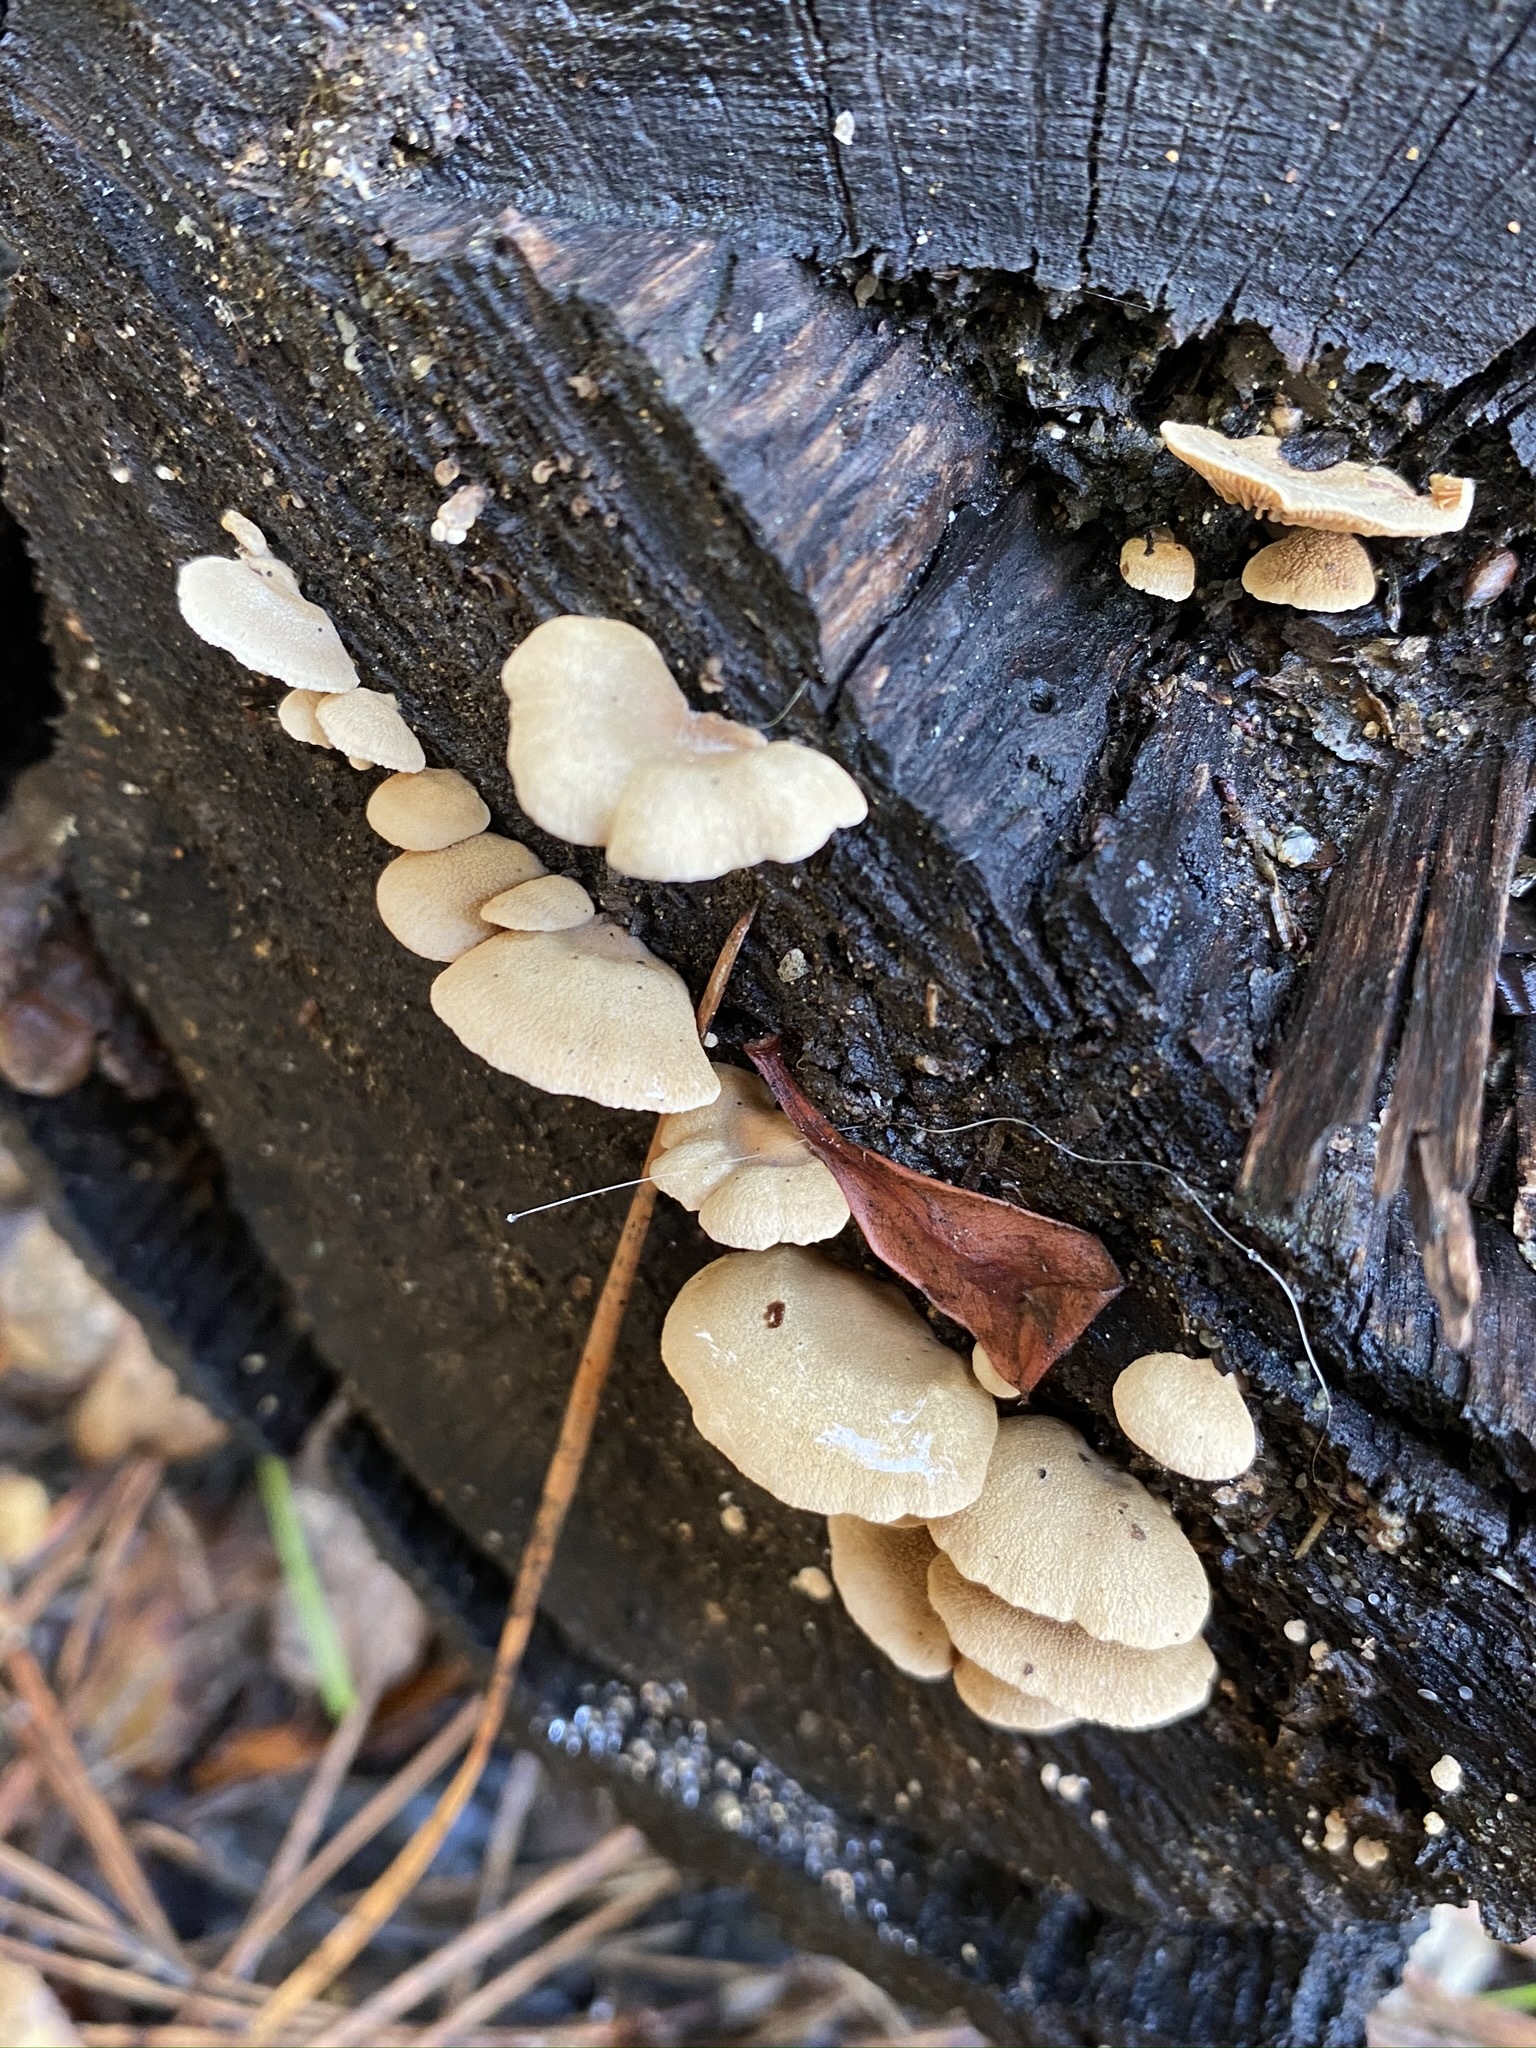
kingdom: Fungi
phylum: Basidiomycota
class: Agaricomycetes
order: Agaricales
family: Mycenaceae
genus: Panellus
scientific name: Panellus stipticus
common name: Bitter oysterling
